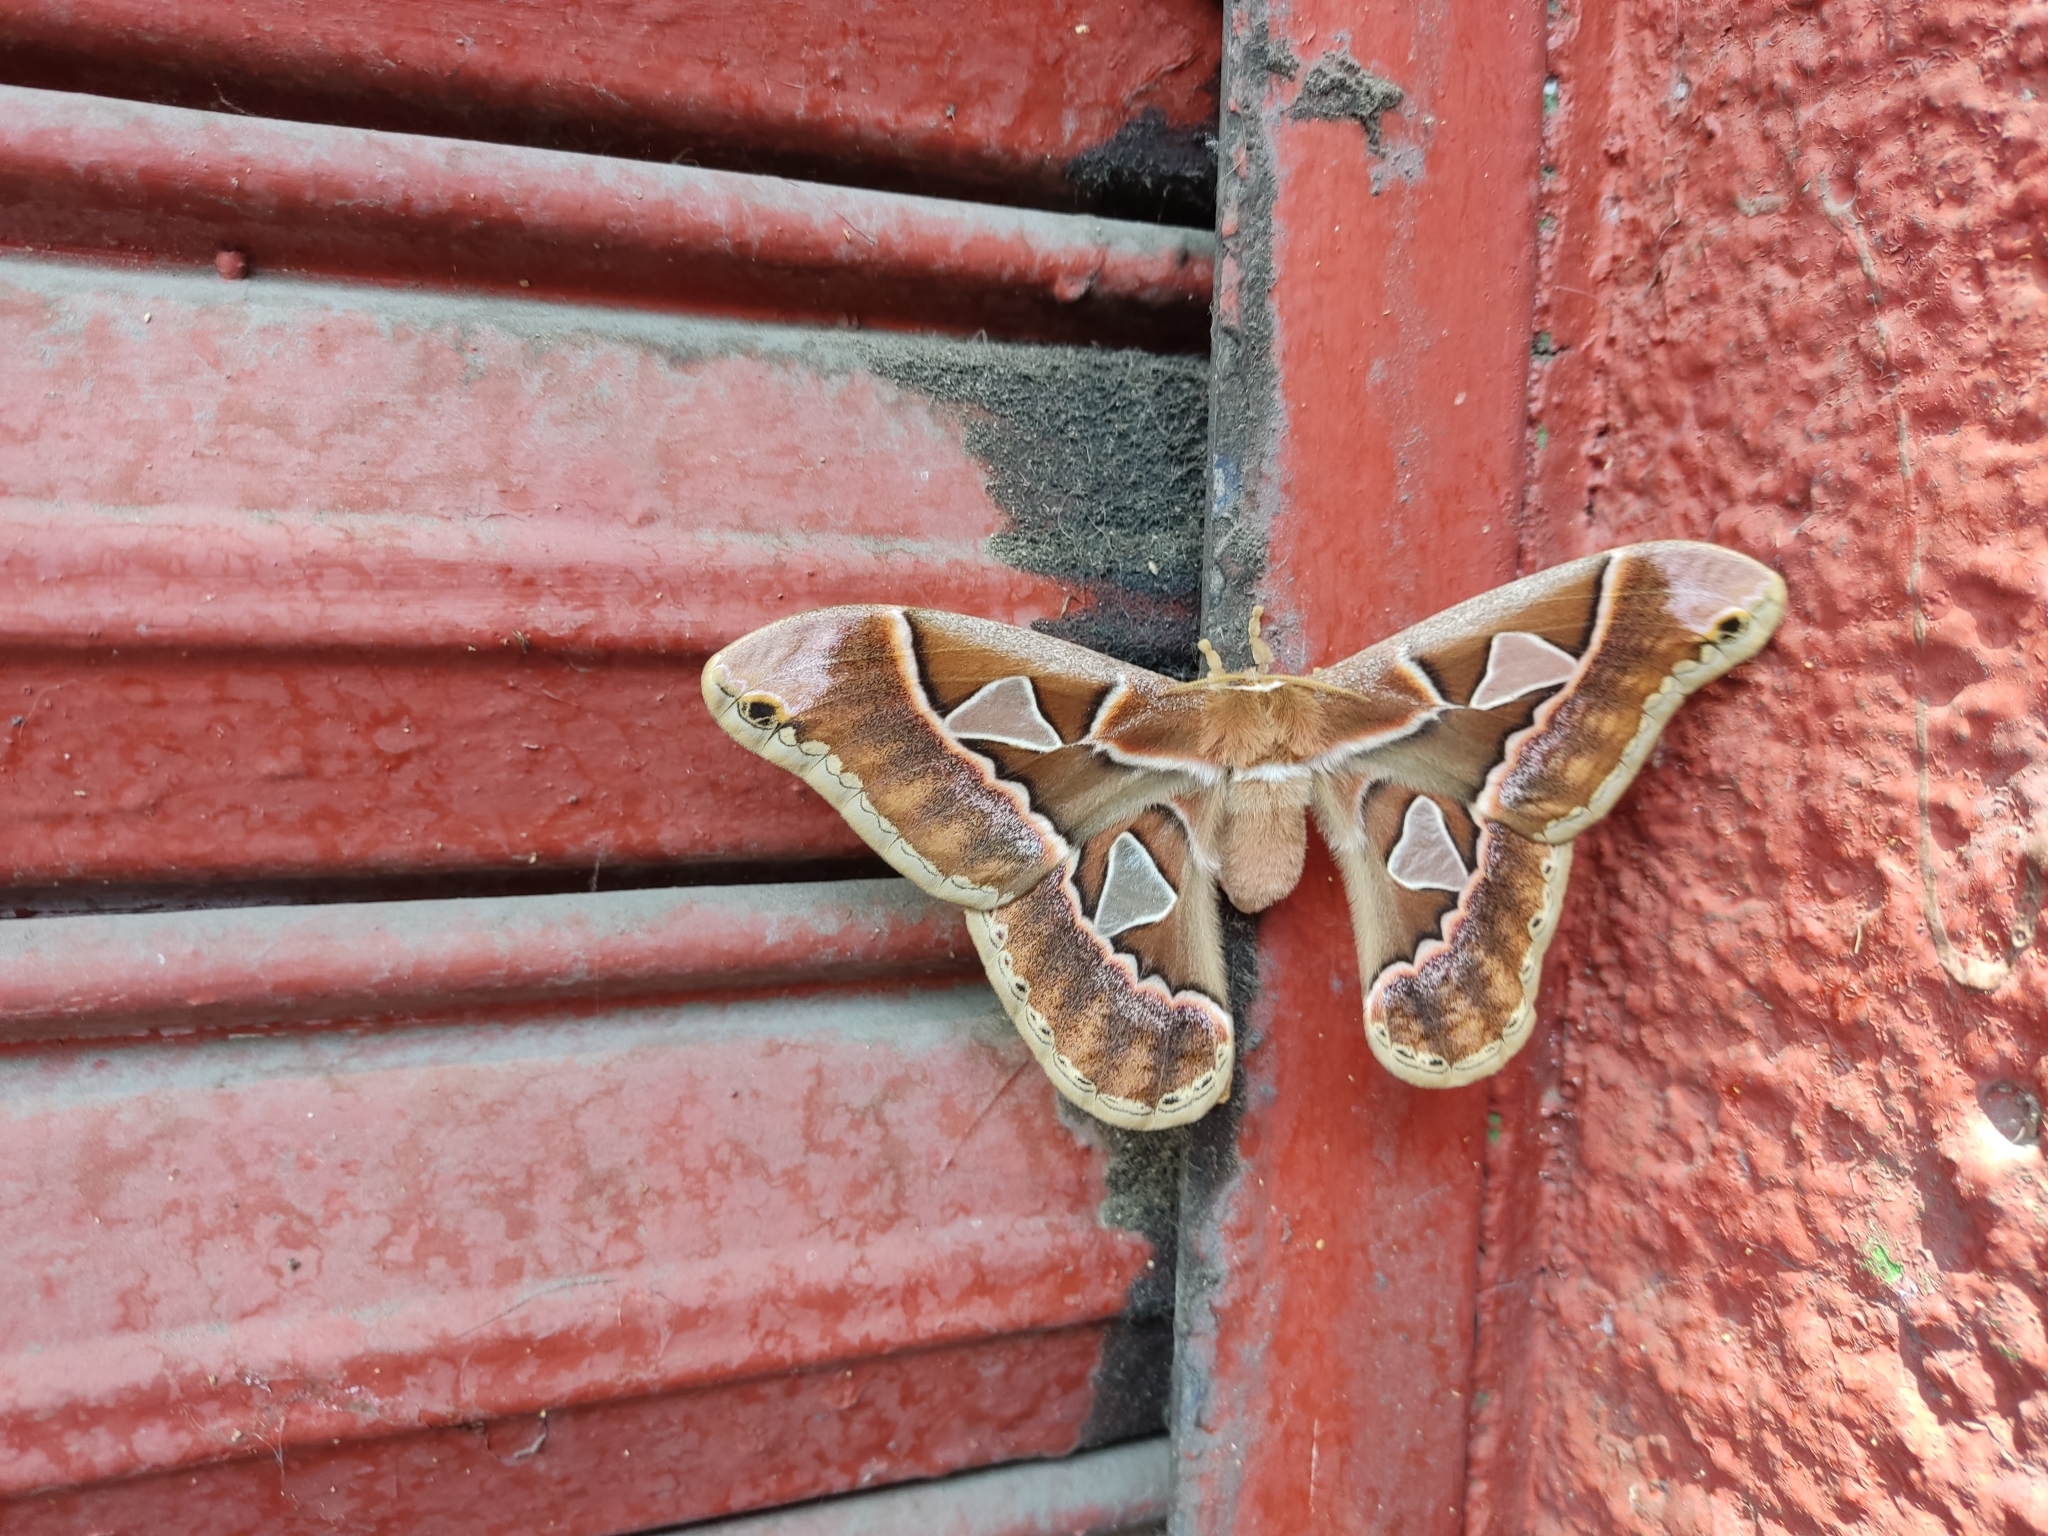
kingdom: Animalia
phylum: Arthropoda
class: Insecta
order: Lepidoptera
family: Saturniidae
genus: Rothschildia
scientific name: Rothschildia orizaba
